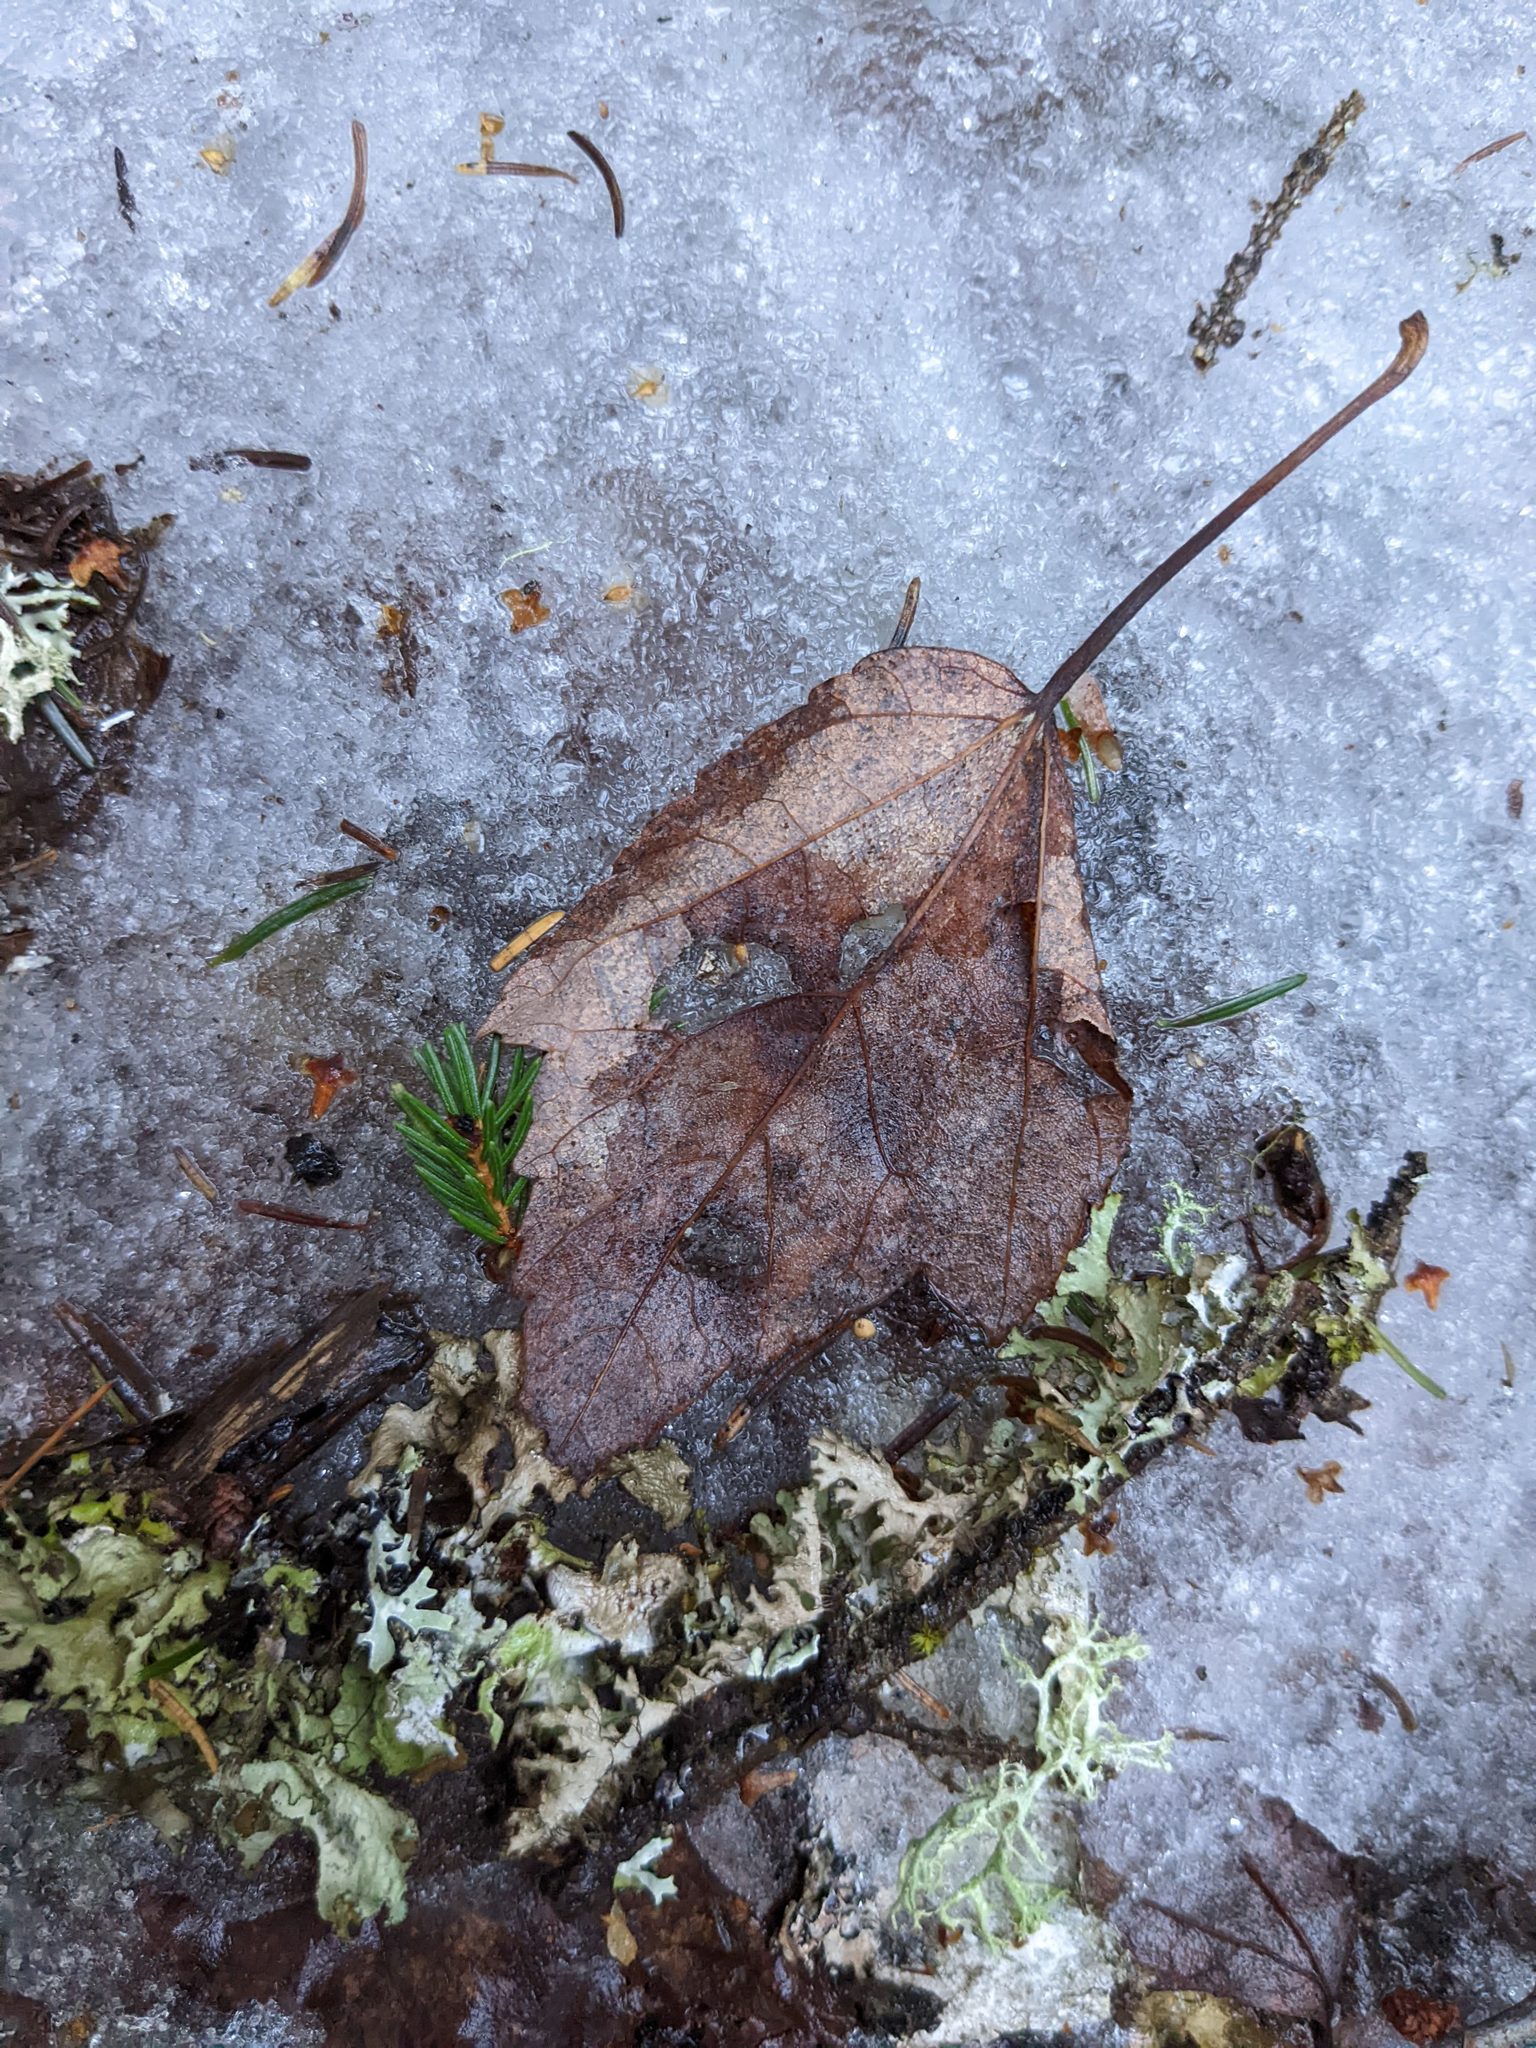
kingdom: Plantae
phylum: Tracheophyta
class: Magnoliopsida
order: Sapindales
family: Sapindaceae
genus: Acer
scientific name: Acer rubrum
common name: Red maple
